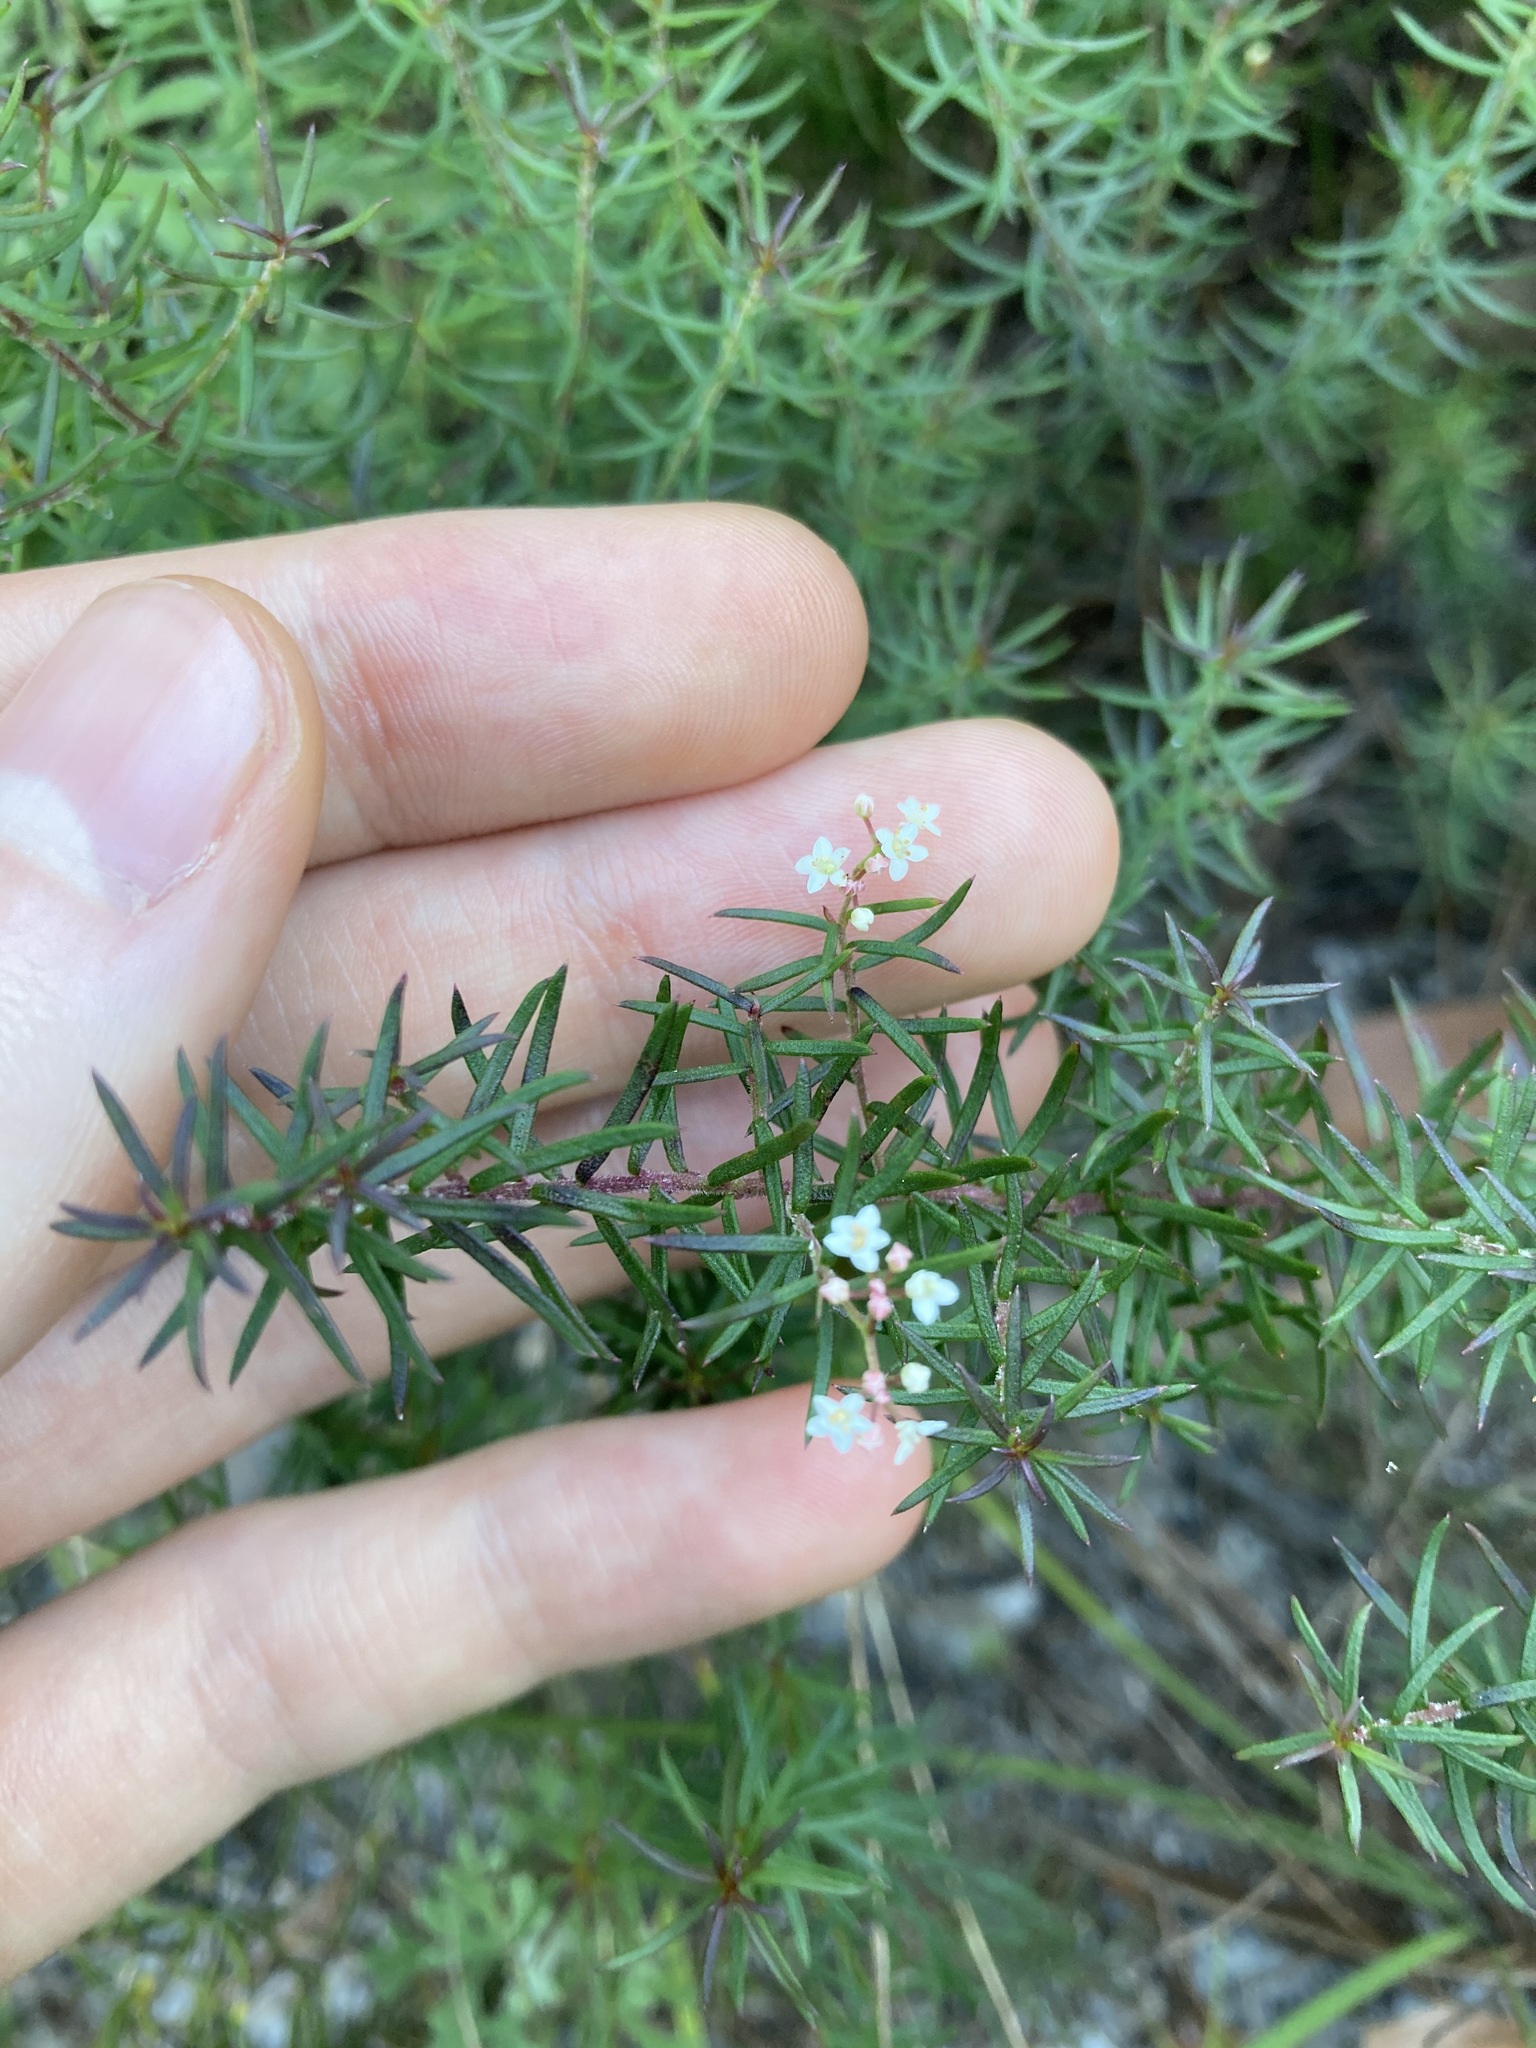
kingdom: Plantae
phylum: Tracheophyta
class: Magnoliopsida
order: Apiales
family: Apiaceae
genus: Platysace
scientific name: Platysace ericoides
